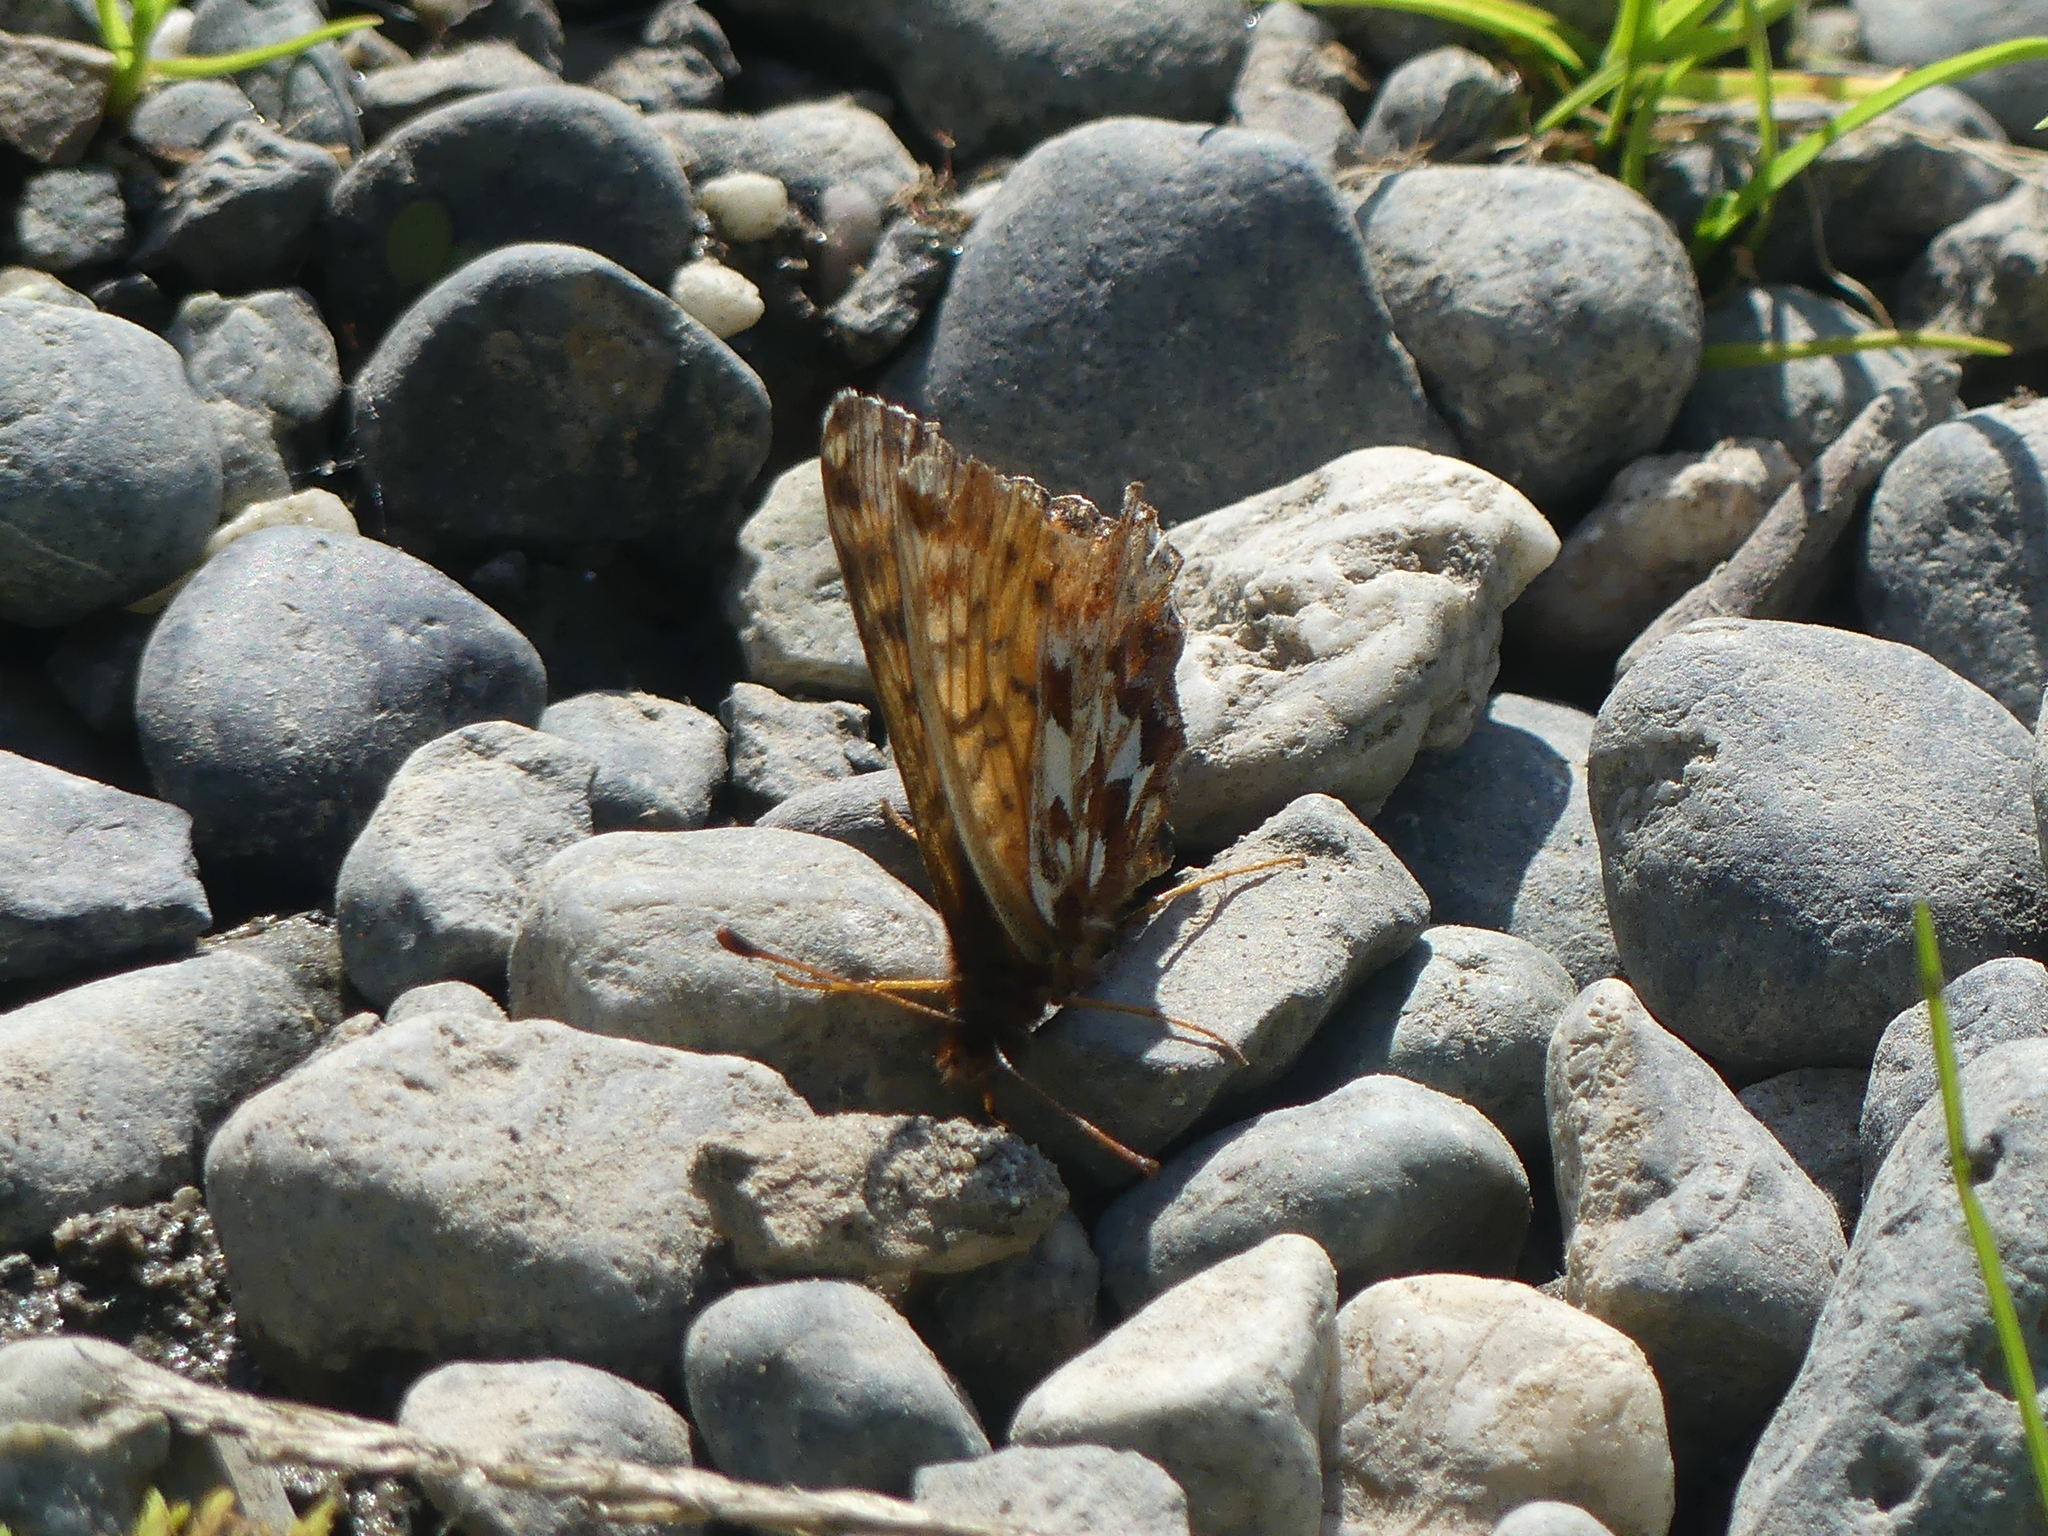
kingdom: Animalia
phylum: Arthropoda
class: Insecta
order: Lepidoptera
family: Nymphalidae
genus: Boloria
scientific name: Boloria chariclea
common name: Arctic fritillary
